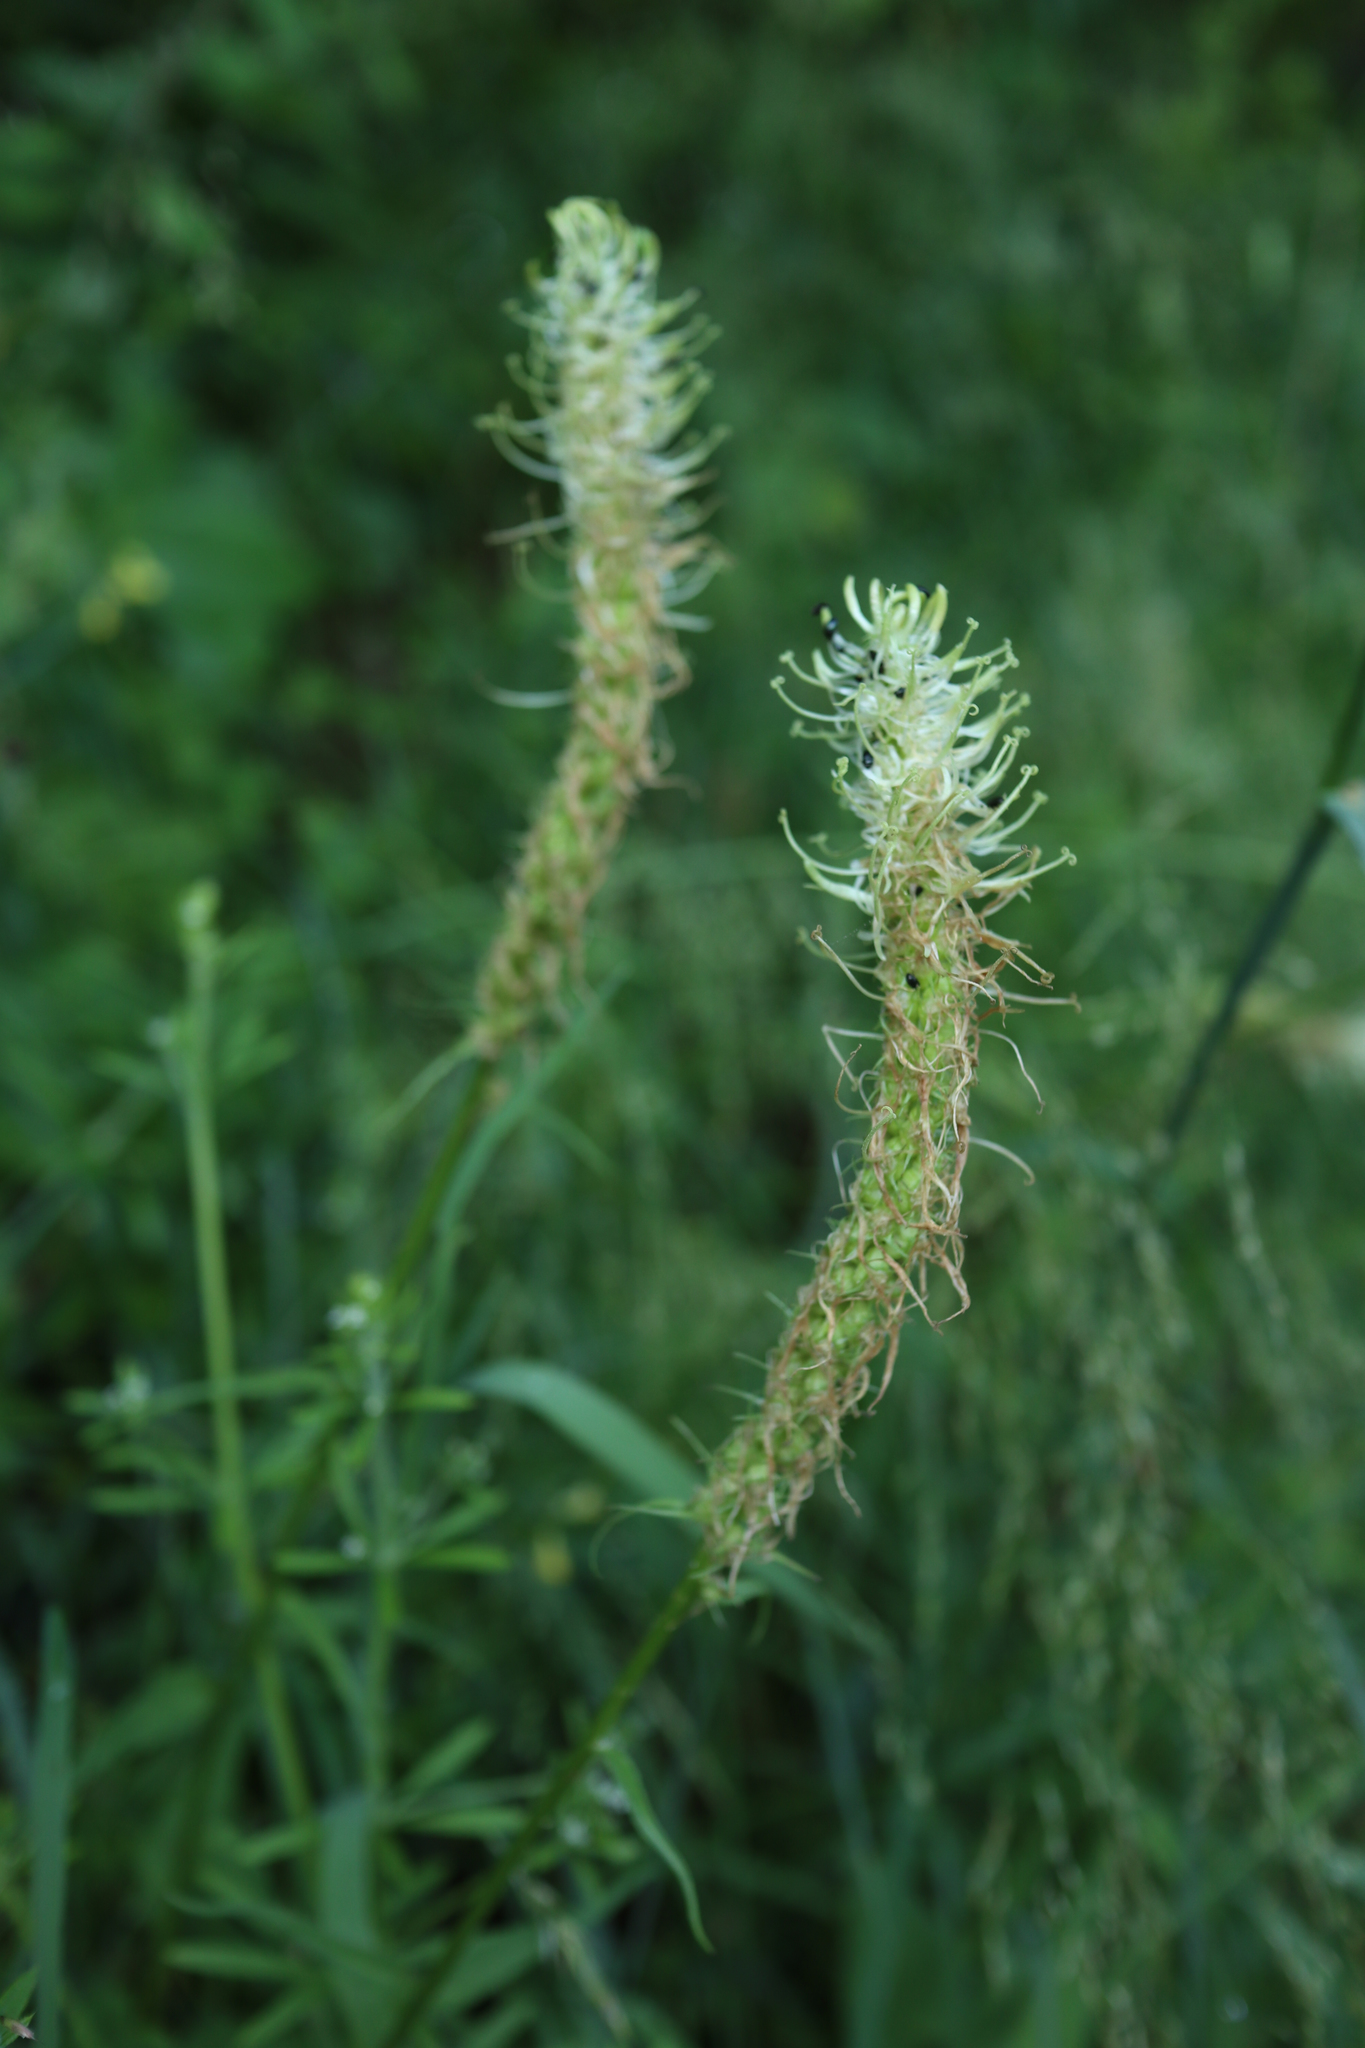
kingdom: Plantae
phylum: Tracheophyta
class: Magnoliopsida
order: Asterales
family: Campanulaceae
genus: Phyteuma
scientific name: Phyteuma spicatum
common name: Spiked rampion
